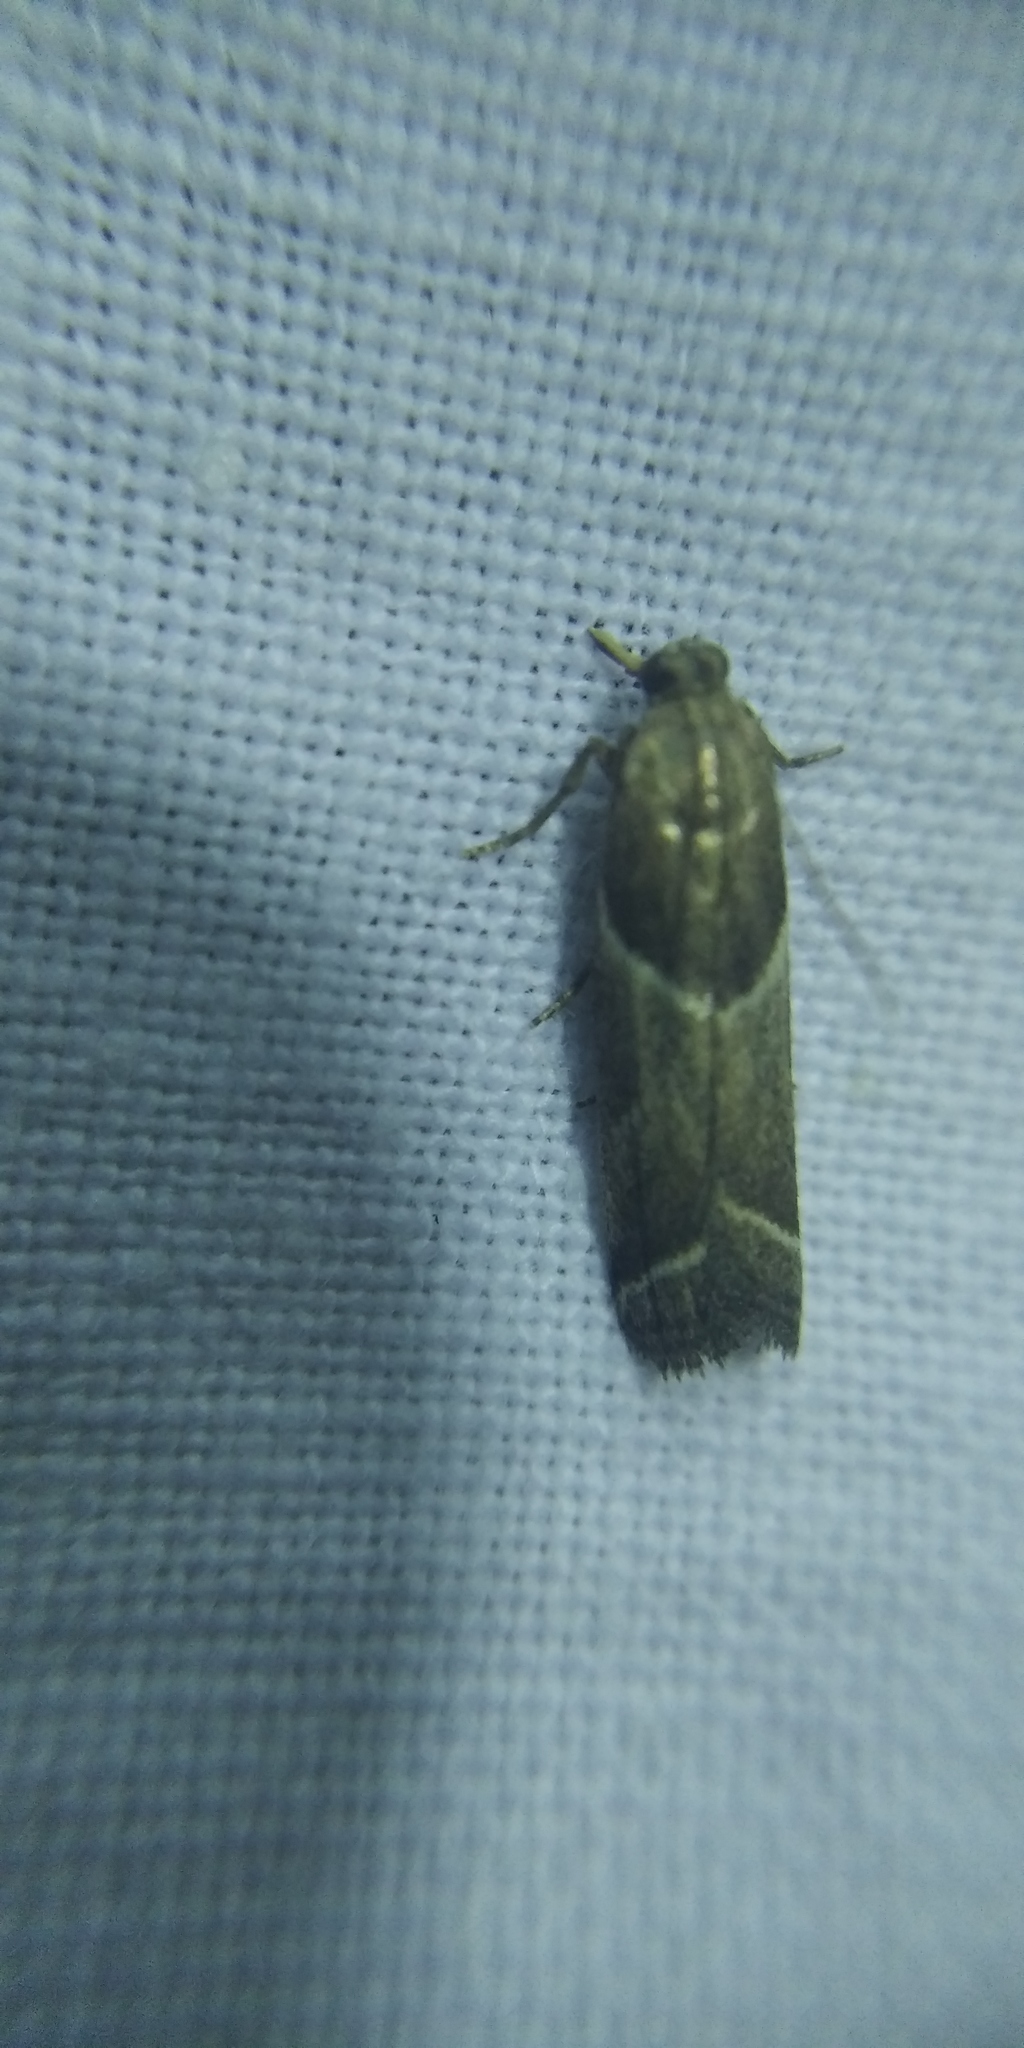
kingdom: Animalia
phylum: Arthropoda
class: Insecta
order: Lepidoptera
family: Pyralidae
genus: Nyctegretis
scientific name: Nyctegretis lineana
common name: Agate knot-horn
